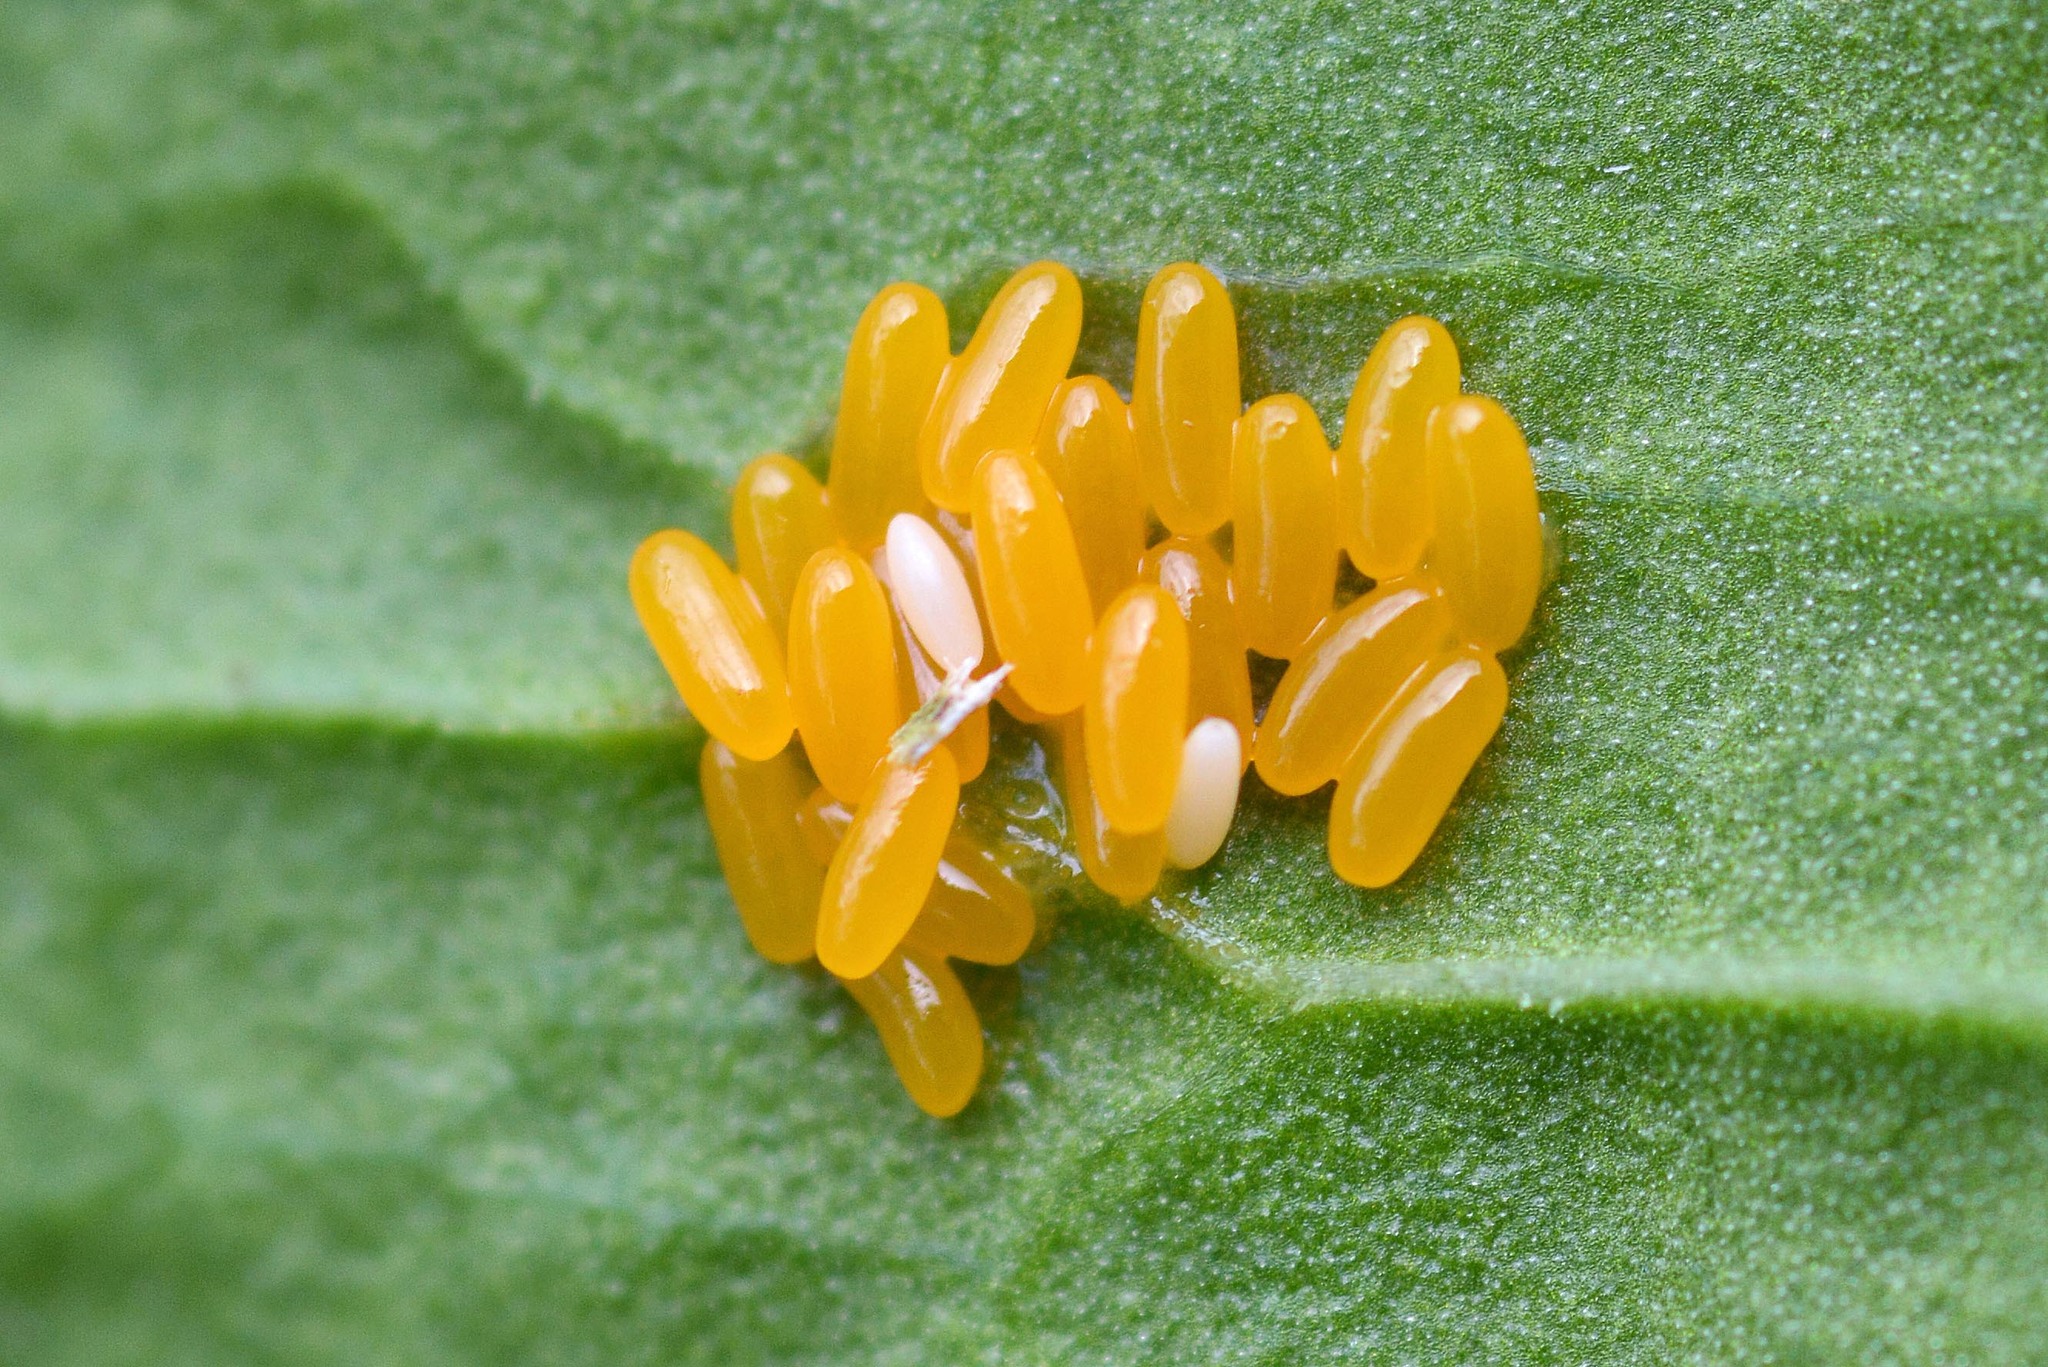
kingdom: Animalia
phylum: Arthropoda
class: Insecta
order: Coleoptera
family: Chrysomelidae
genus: Gastrophysa
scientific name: Gastrophysa viridula
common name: Green dock beetle
